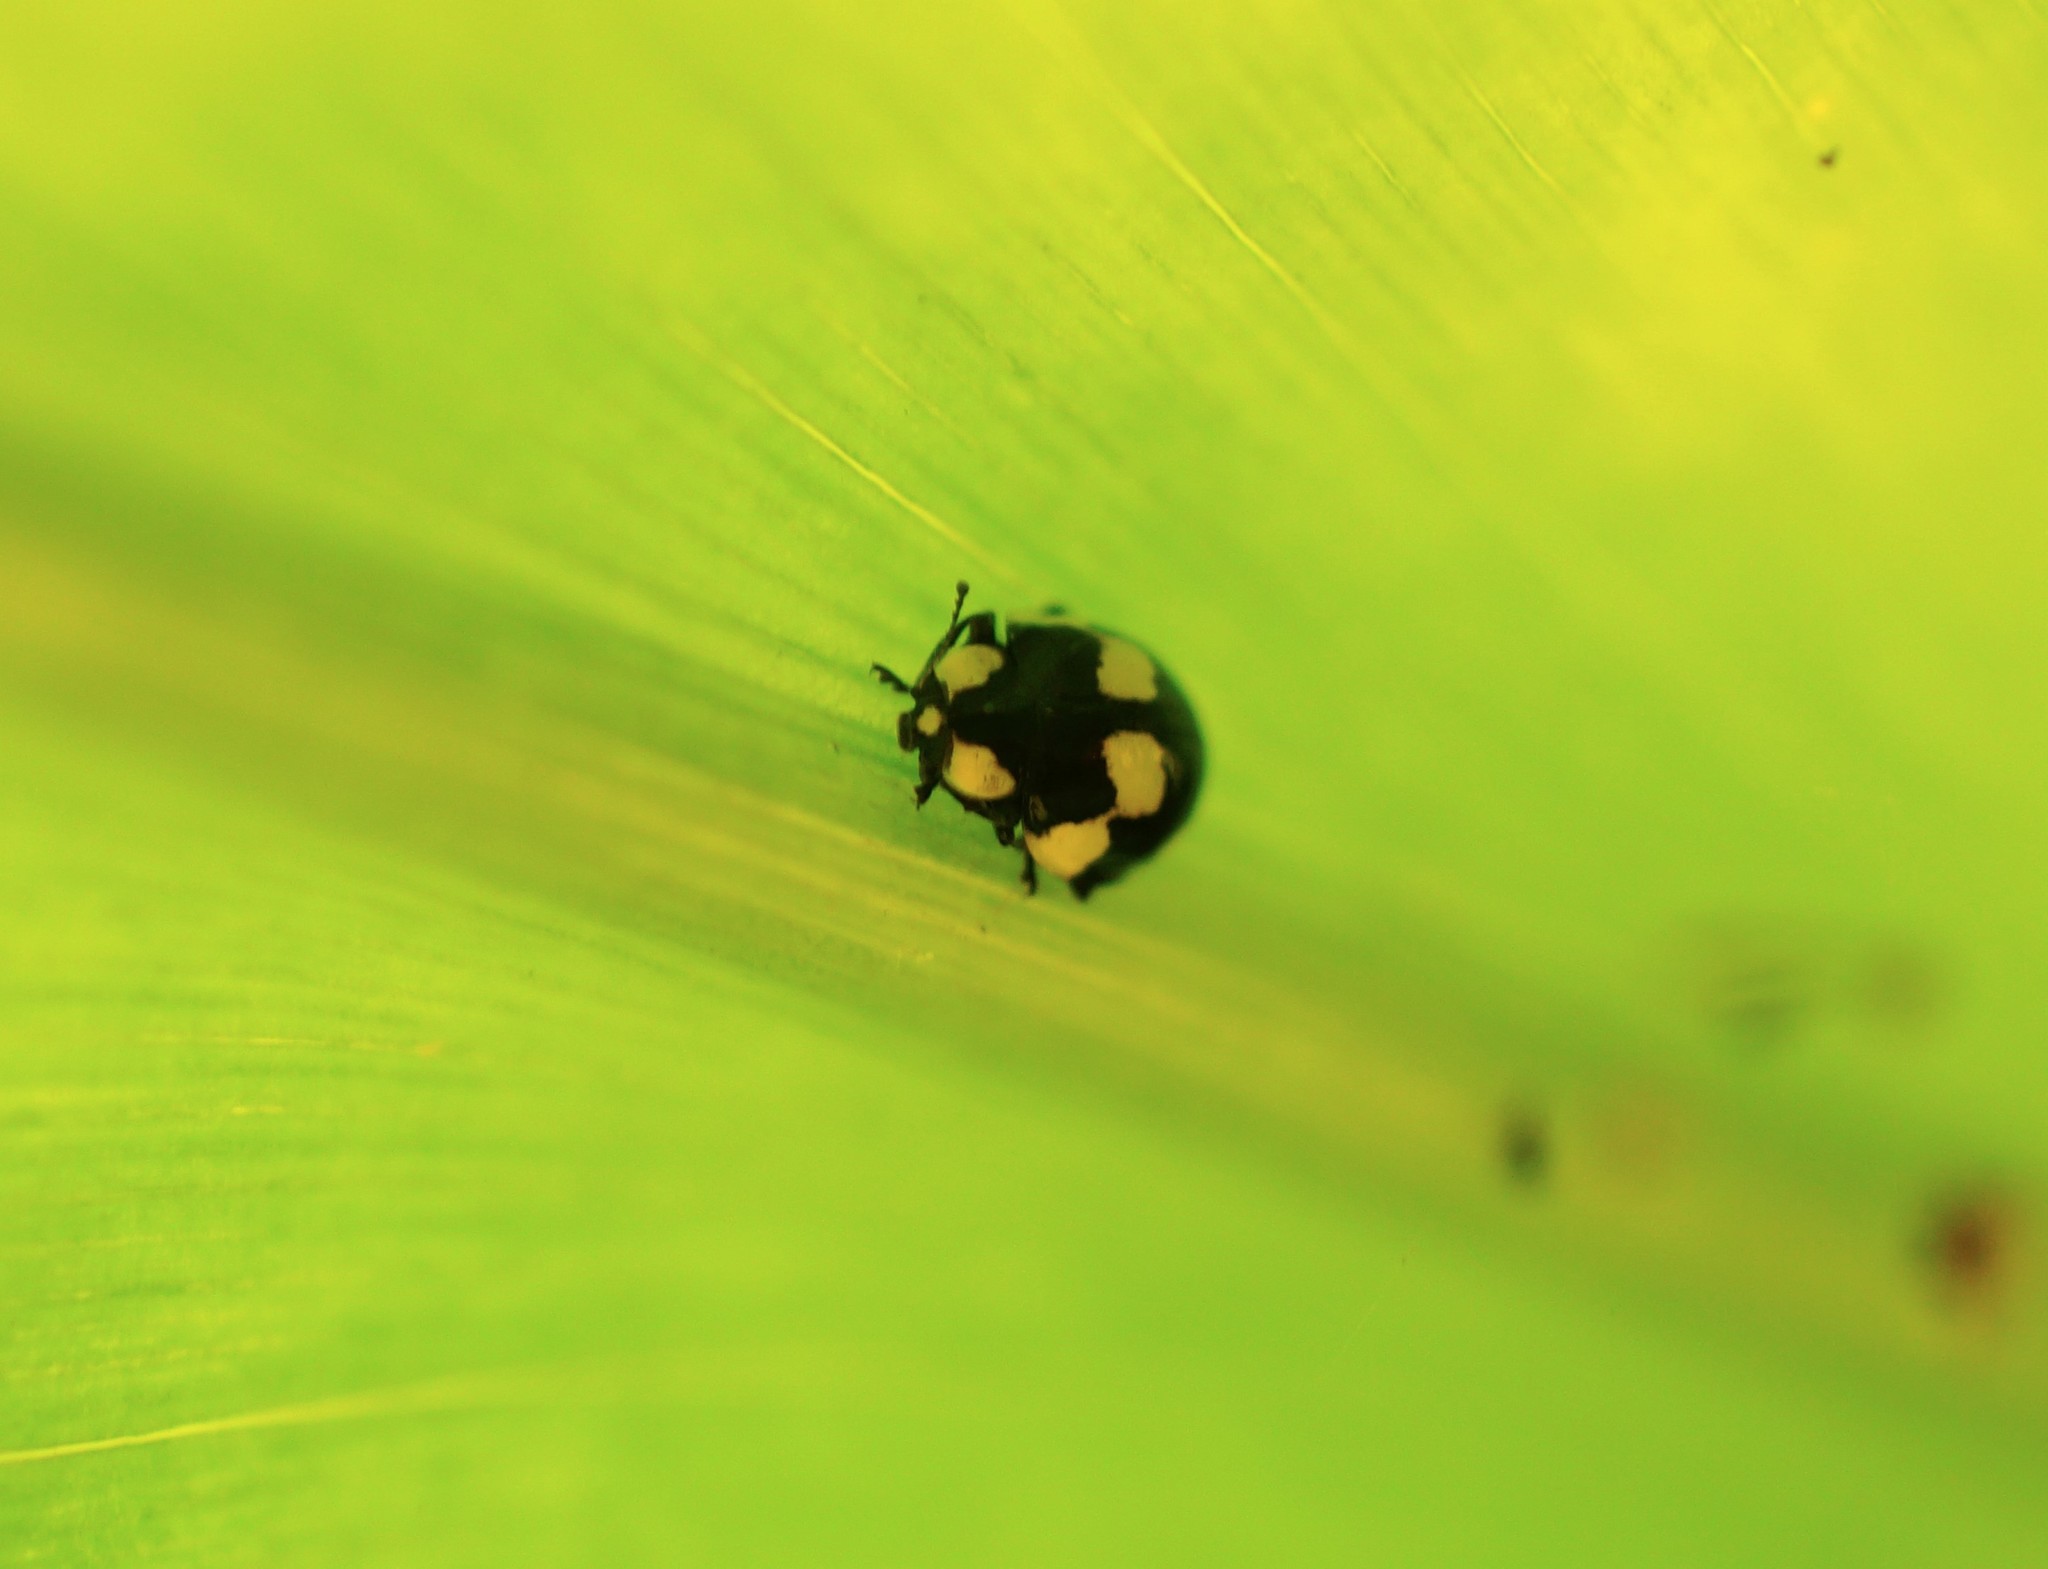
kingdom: Animalia
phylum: Arthropoda
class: Insecta
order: Coleoptera
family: Coccinellidae
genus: Illeis
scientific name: Illeis galbula
